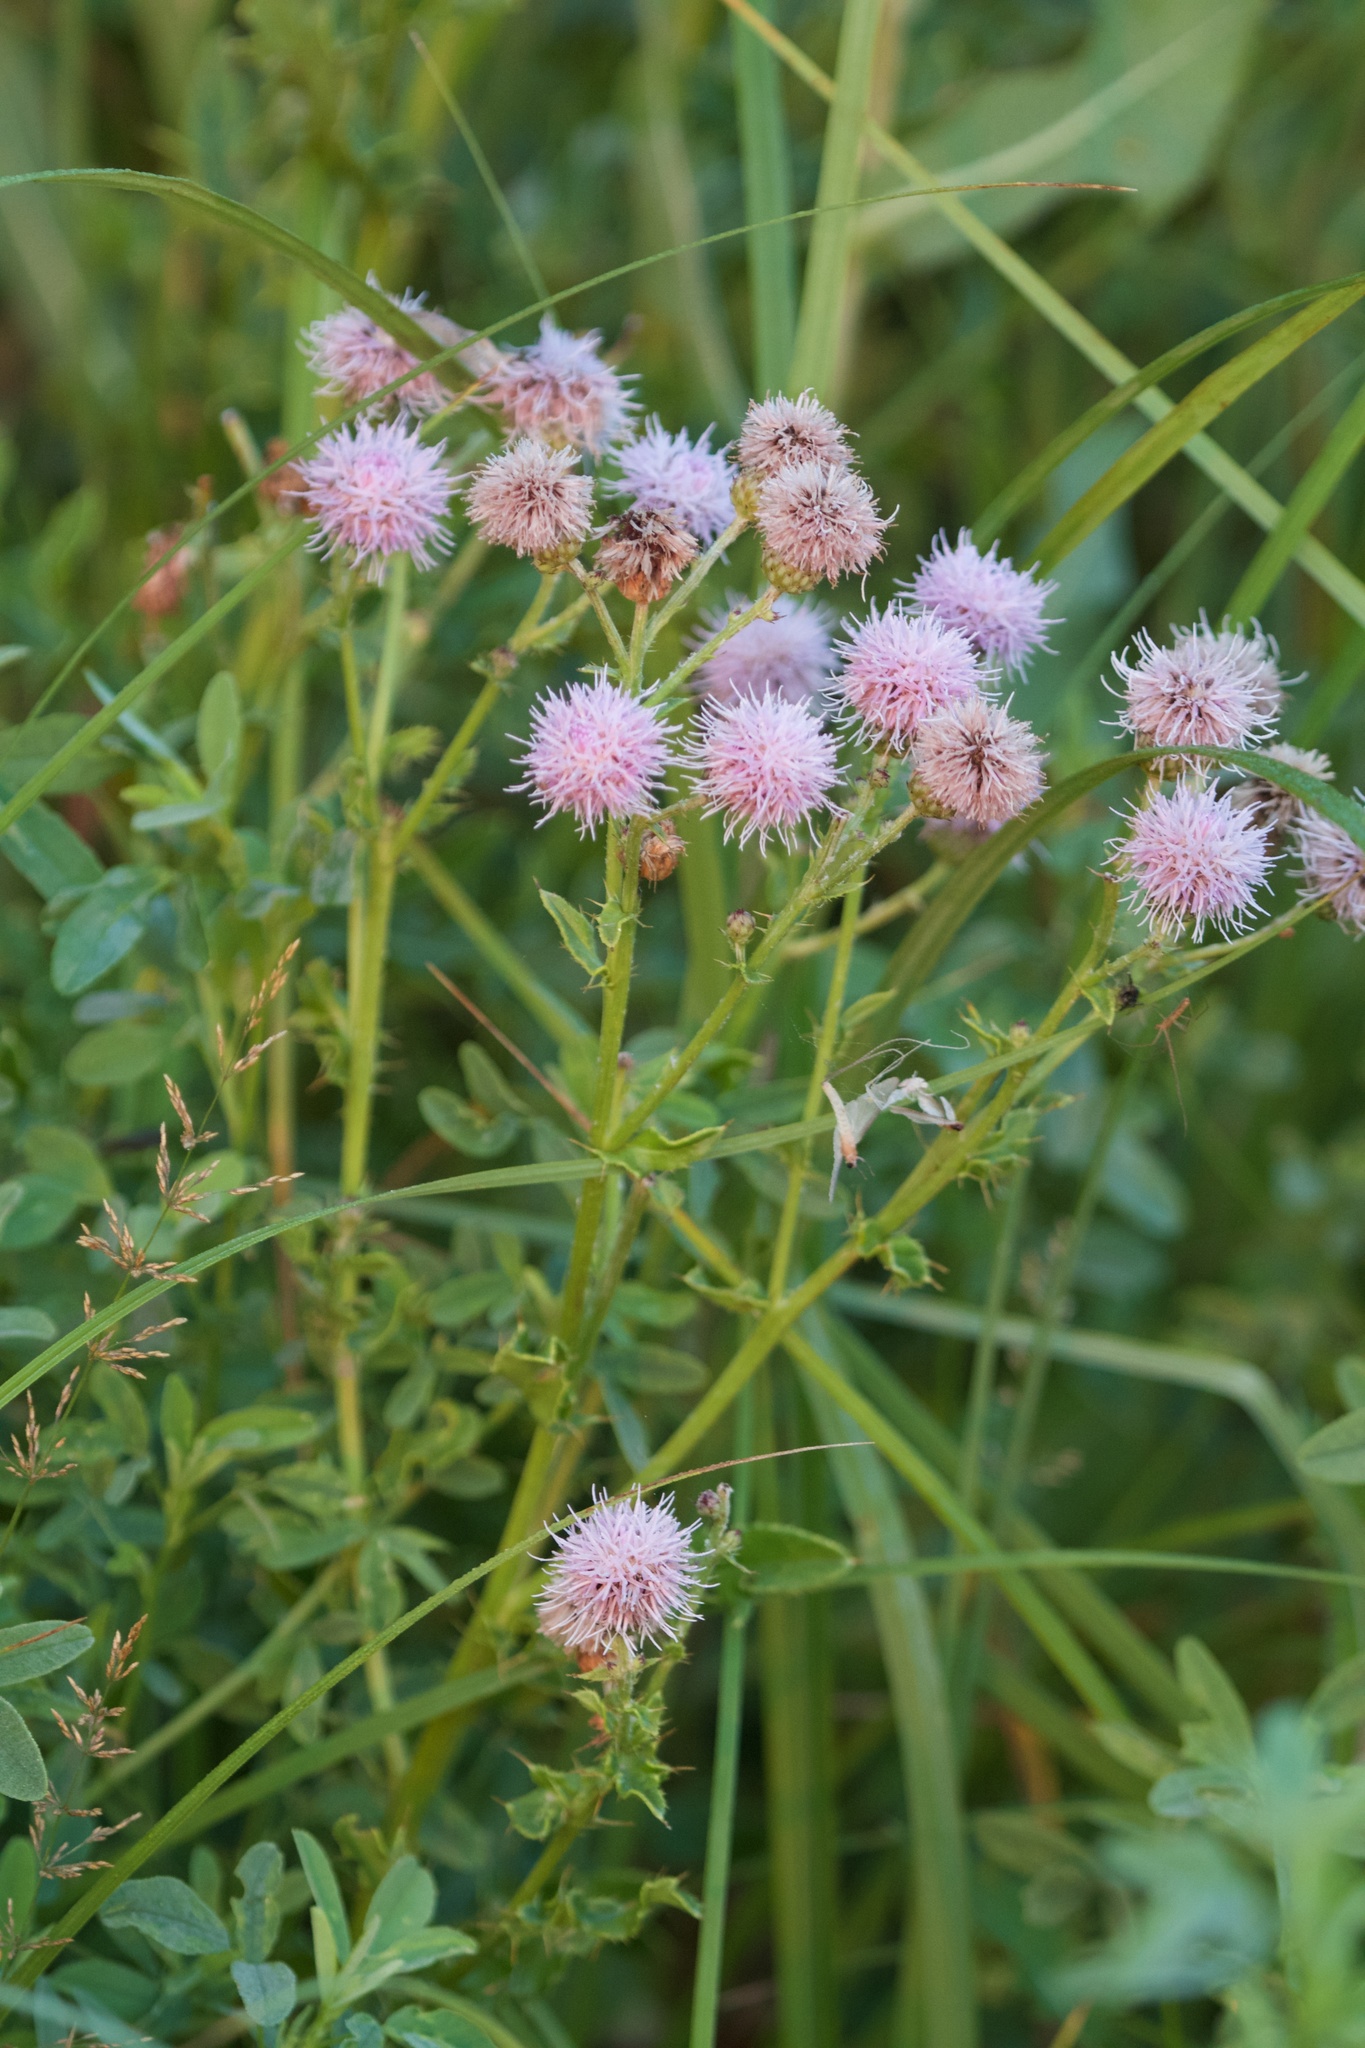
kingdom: Plantae
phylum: Tracheophyta
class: Magnoliopsida
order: Asterales
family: Asteraceae
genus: Cirsium
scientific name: Cirsium arvense
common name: Creeping thistle
